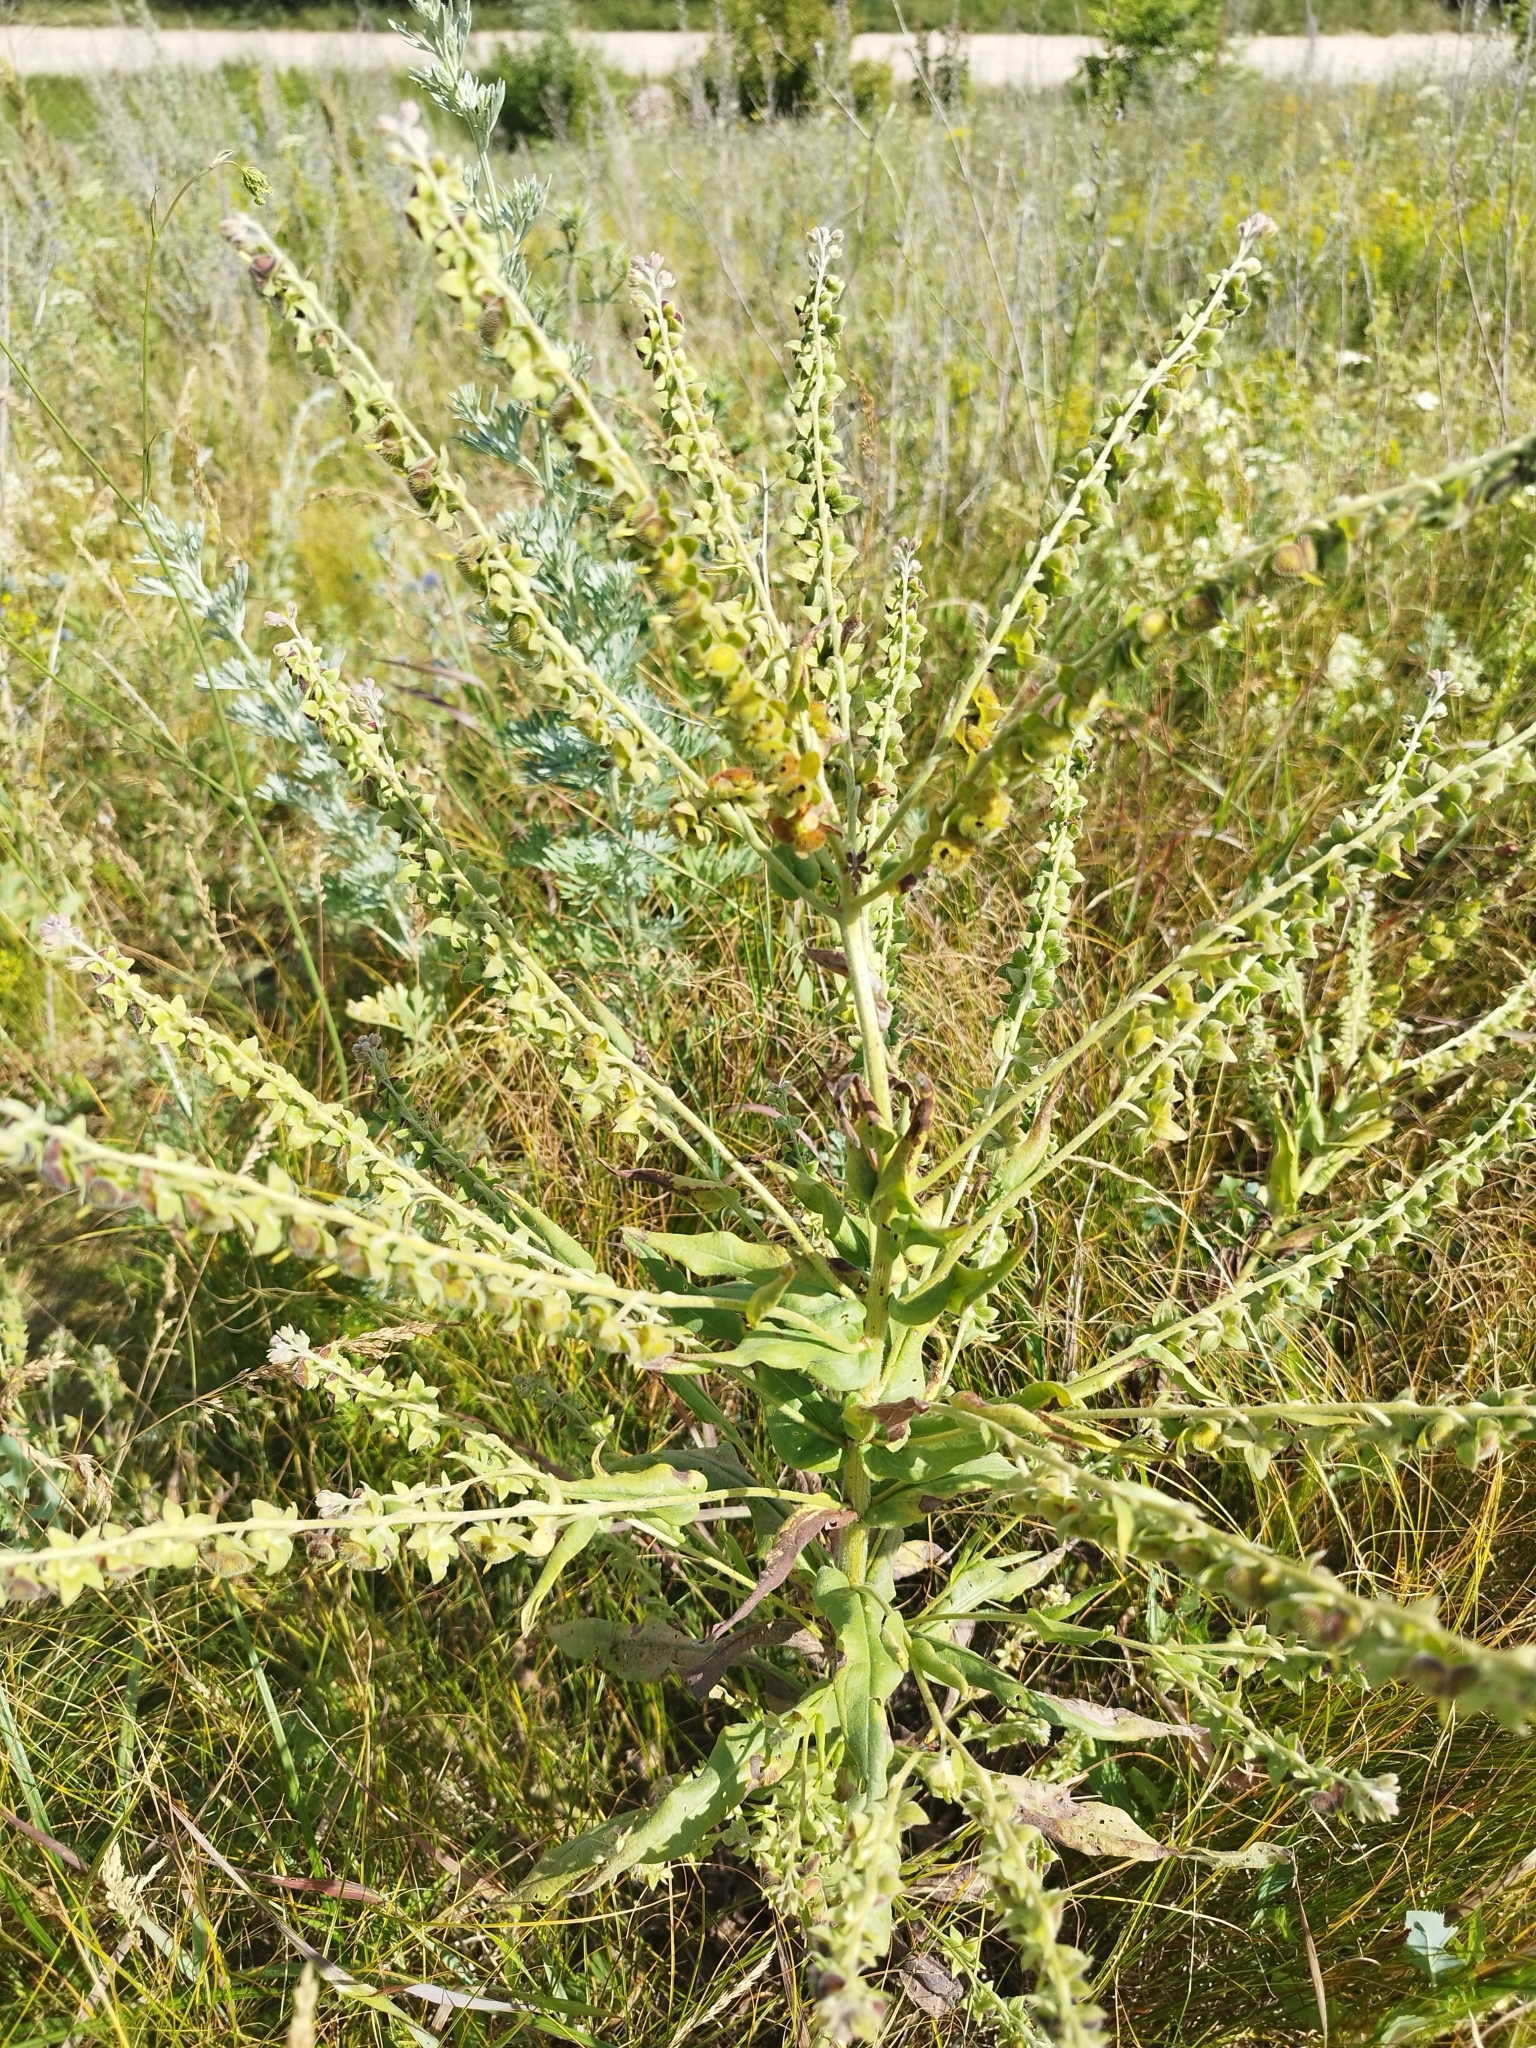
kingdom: Plantae
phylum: Tracheophyta
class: Magnoliopsida
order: Boraginales
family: Boraginaceae
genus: Cynoglossum
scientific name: Cynoglossum officinale
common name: Hound's-tongue
